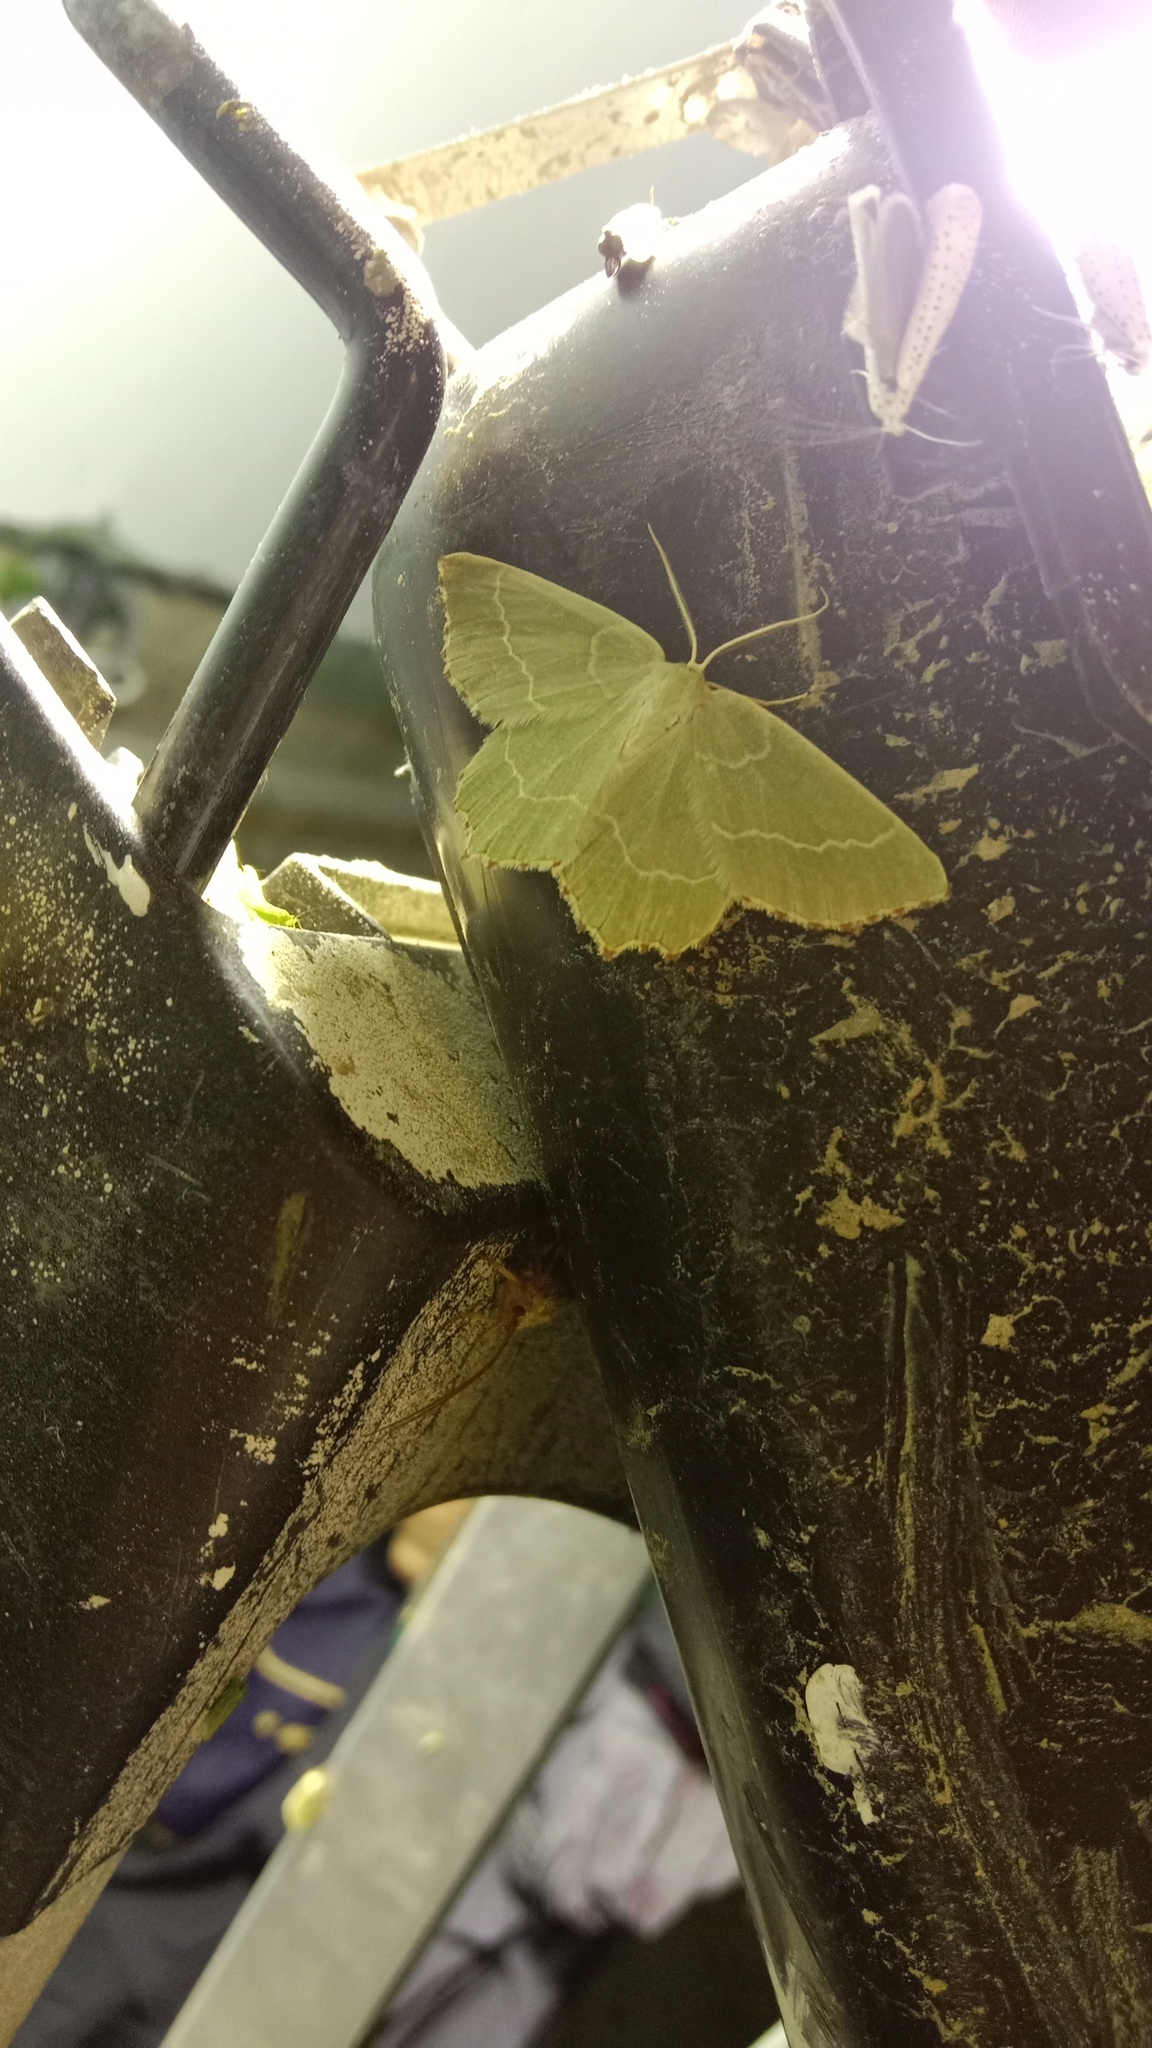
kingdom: Animalia
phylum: Arthropoda
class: Insecta
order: Lepidoptera
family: Geometridae
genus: Thalera
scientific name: Thalera fimbrialis
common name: Sussex emerald
